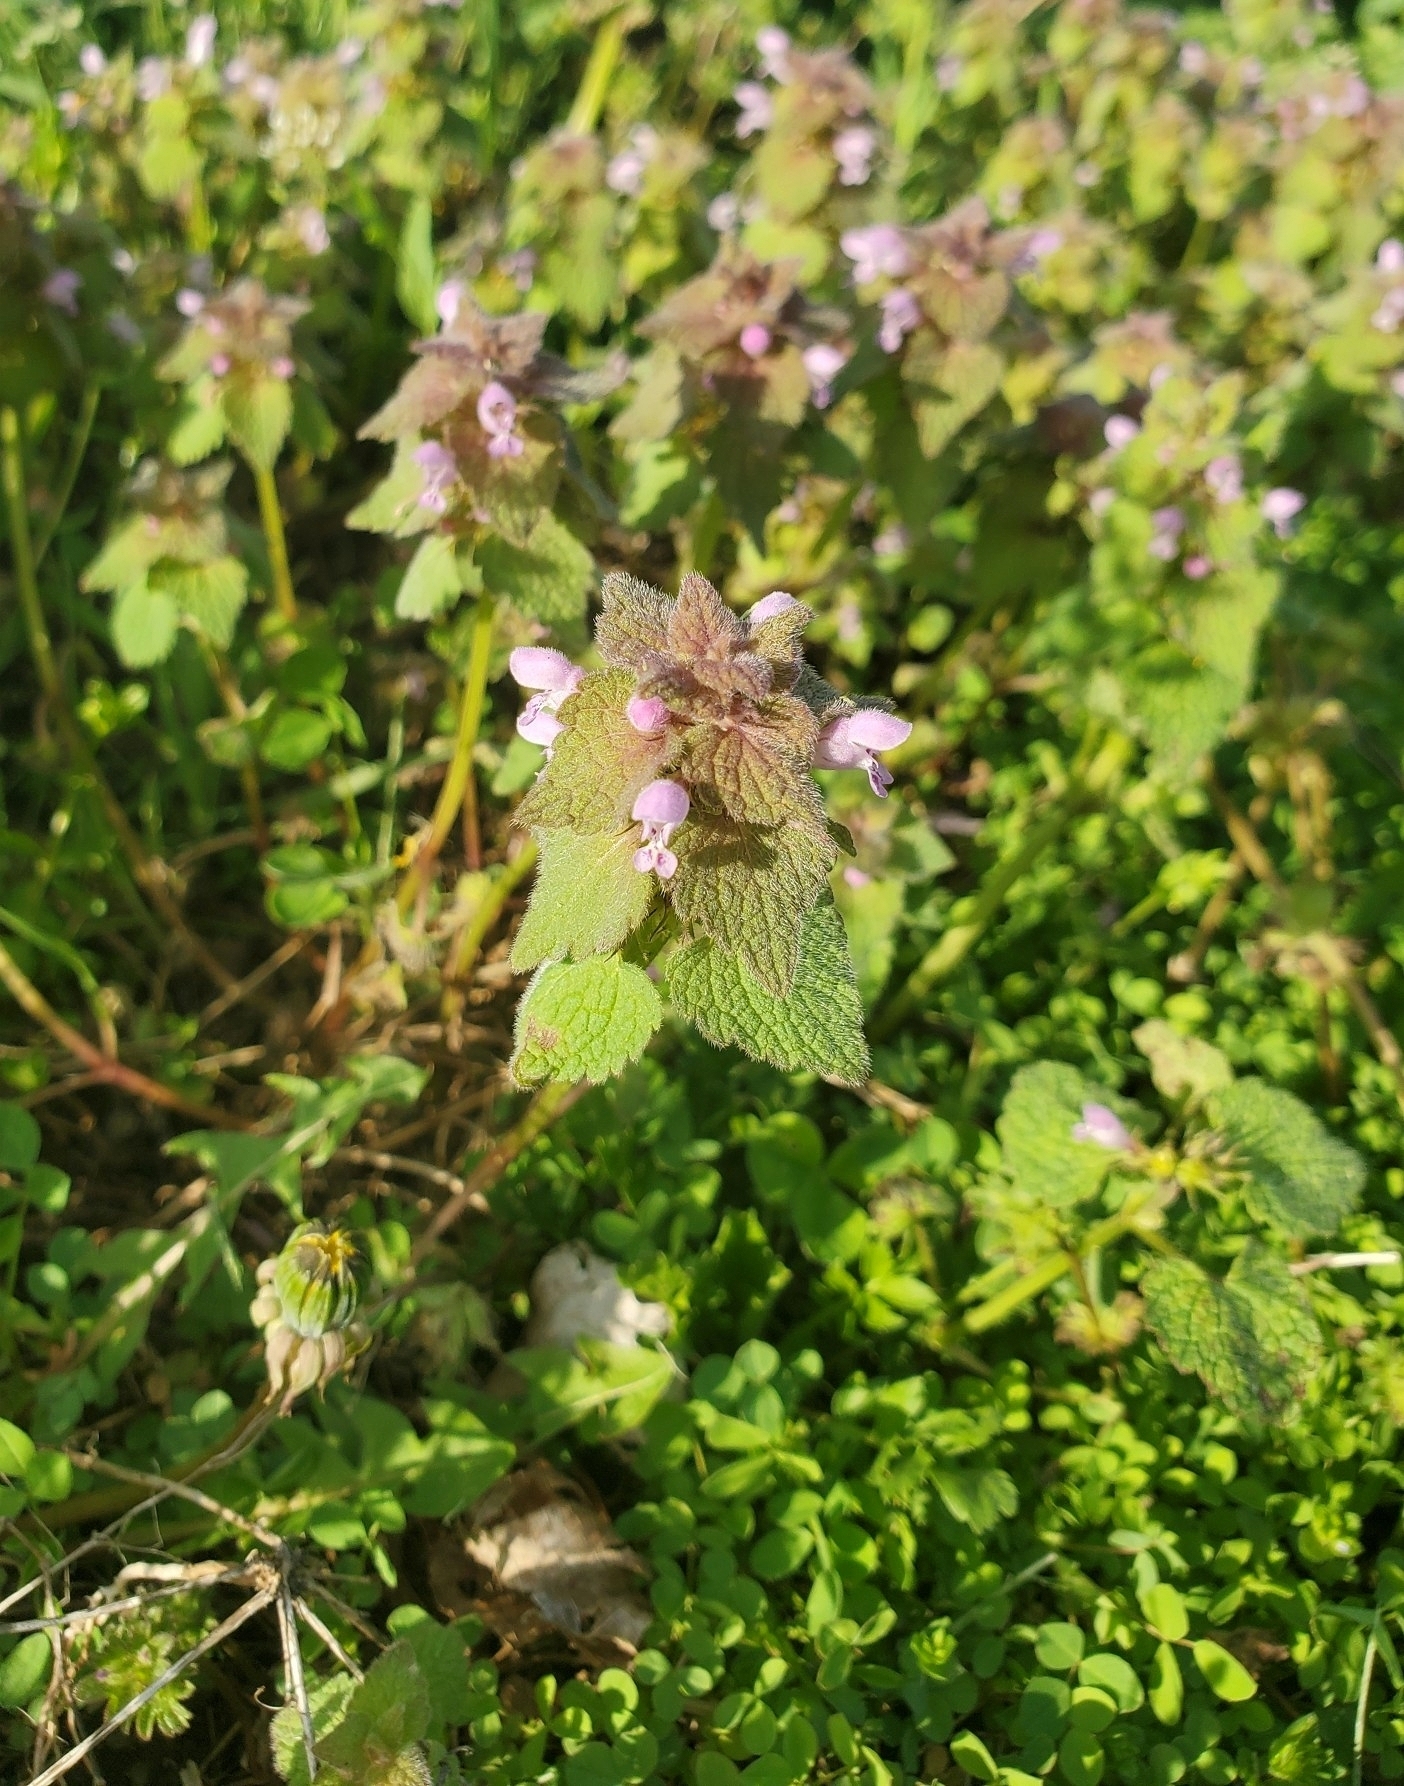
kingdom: Plantae
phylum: Tracheophyta
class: Magnoliopsida
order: Lamiales
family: Lamiaceae
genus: Lamium
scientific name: Lamium purpureum
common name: Red dead-nettle
